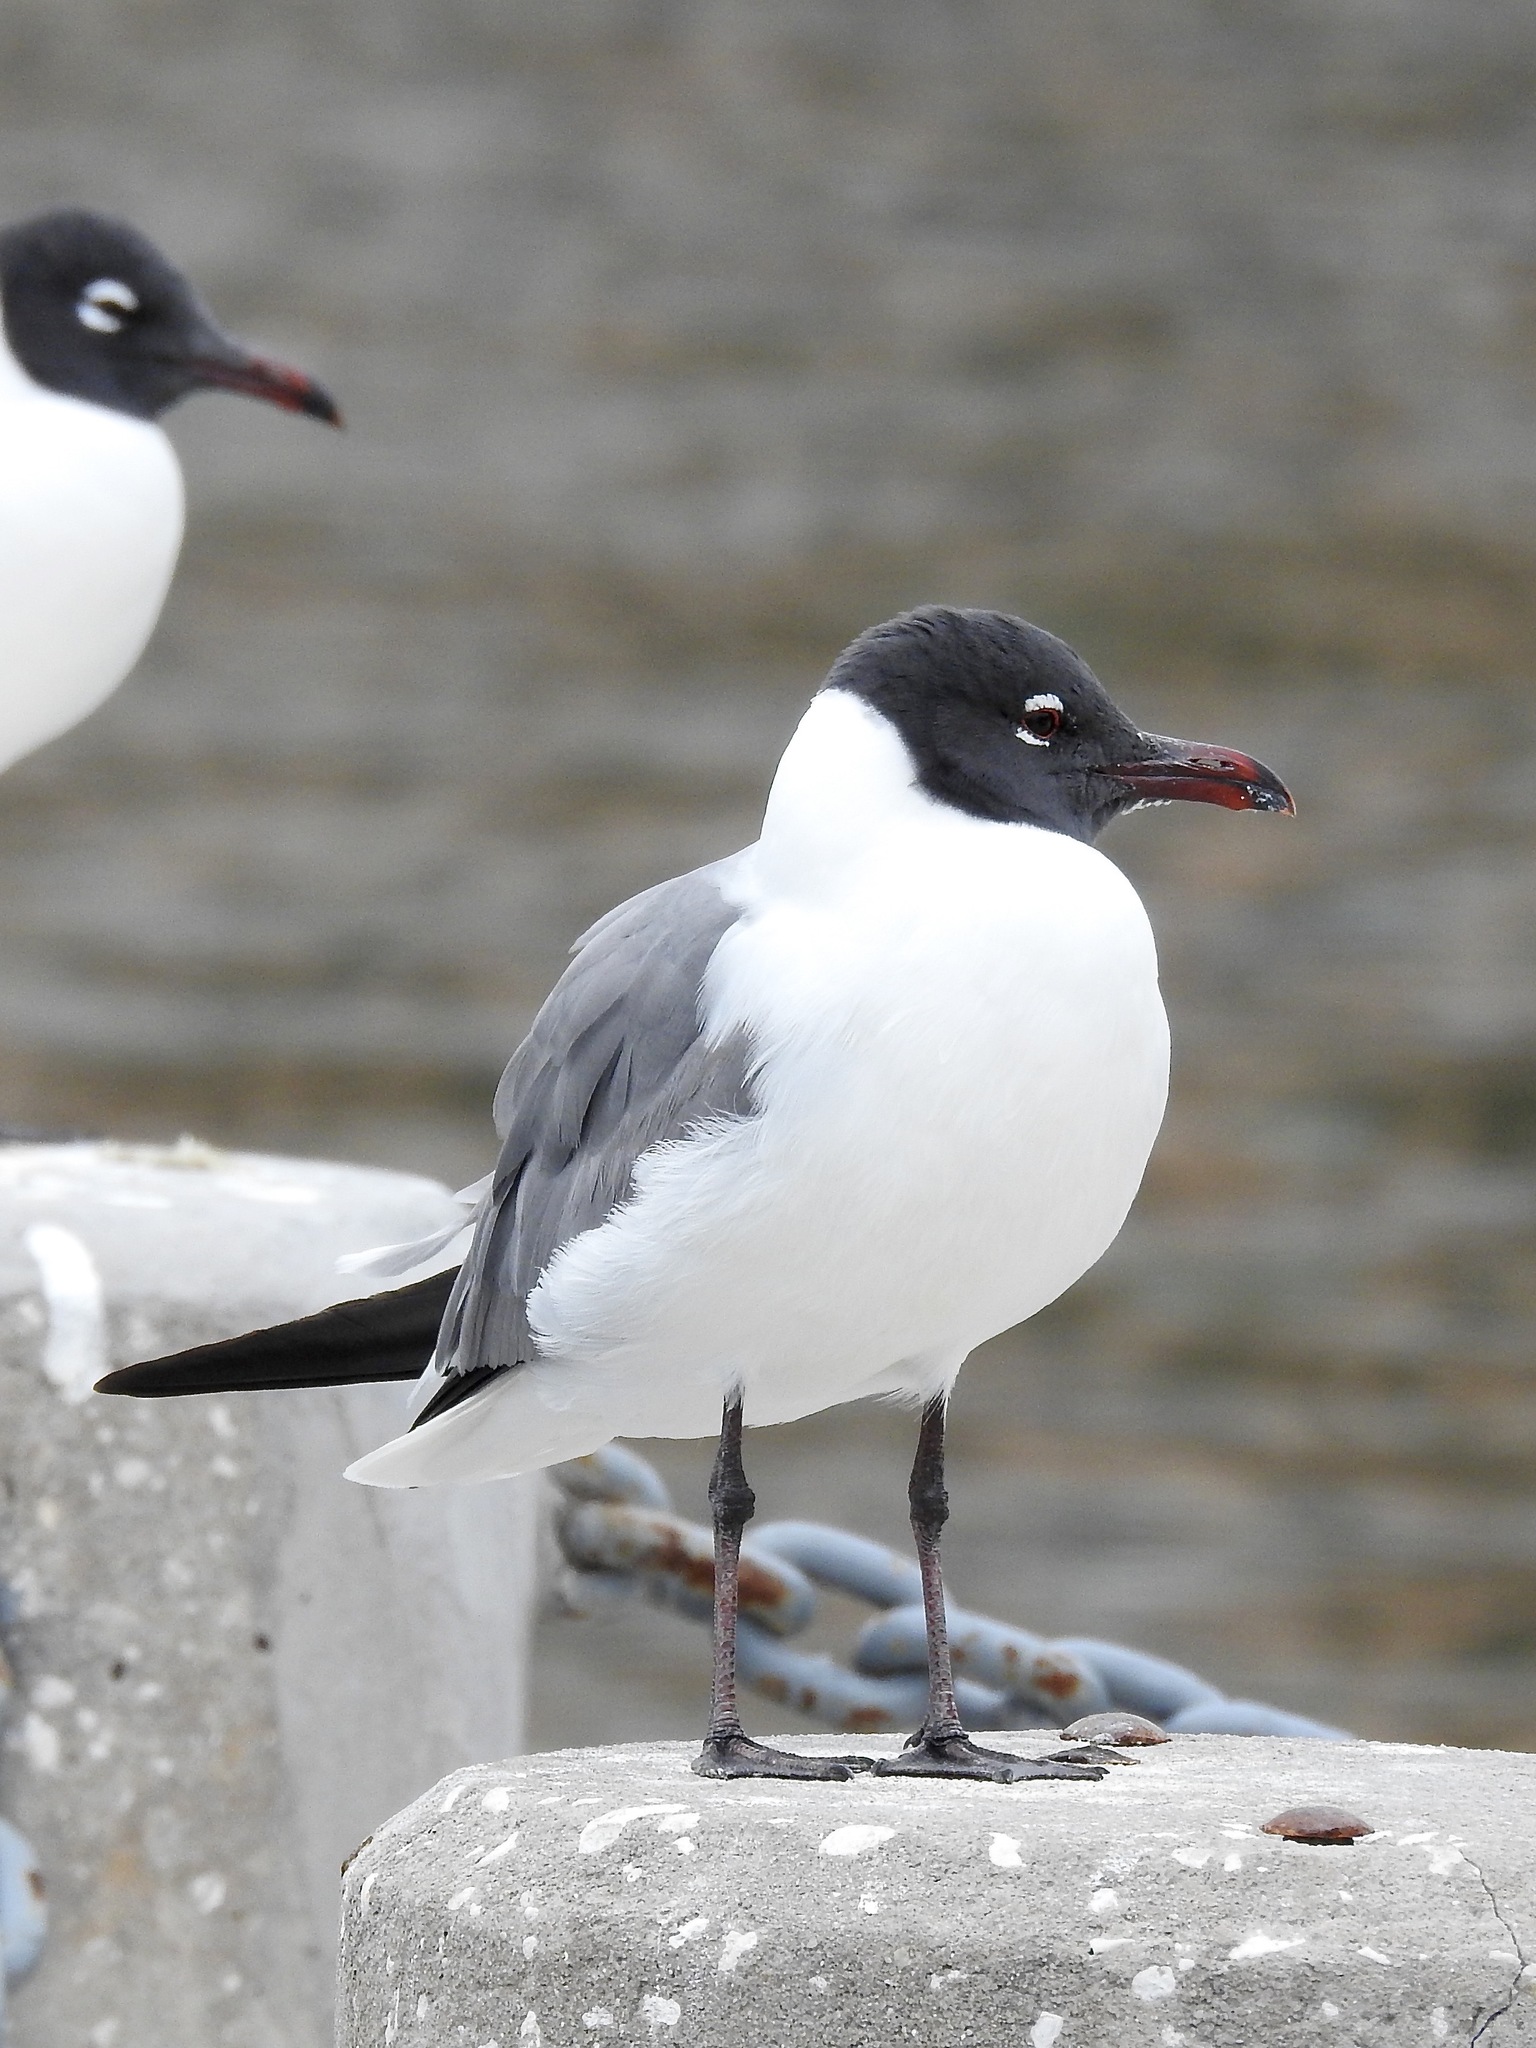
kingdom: Animalia
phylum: Chordata
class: Aves
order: Charadriiformes
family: Laridae
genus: Leucophaeus
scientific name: Leucophaeus atricilla
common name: Laughing gull
